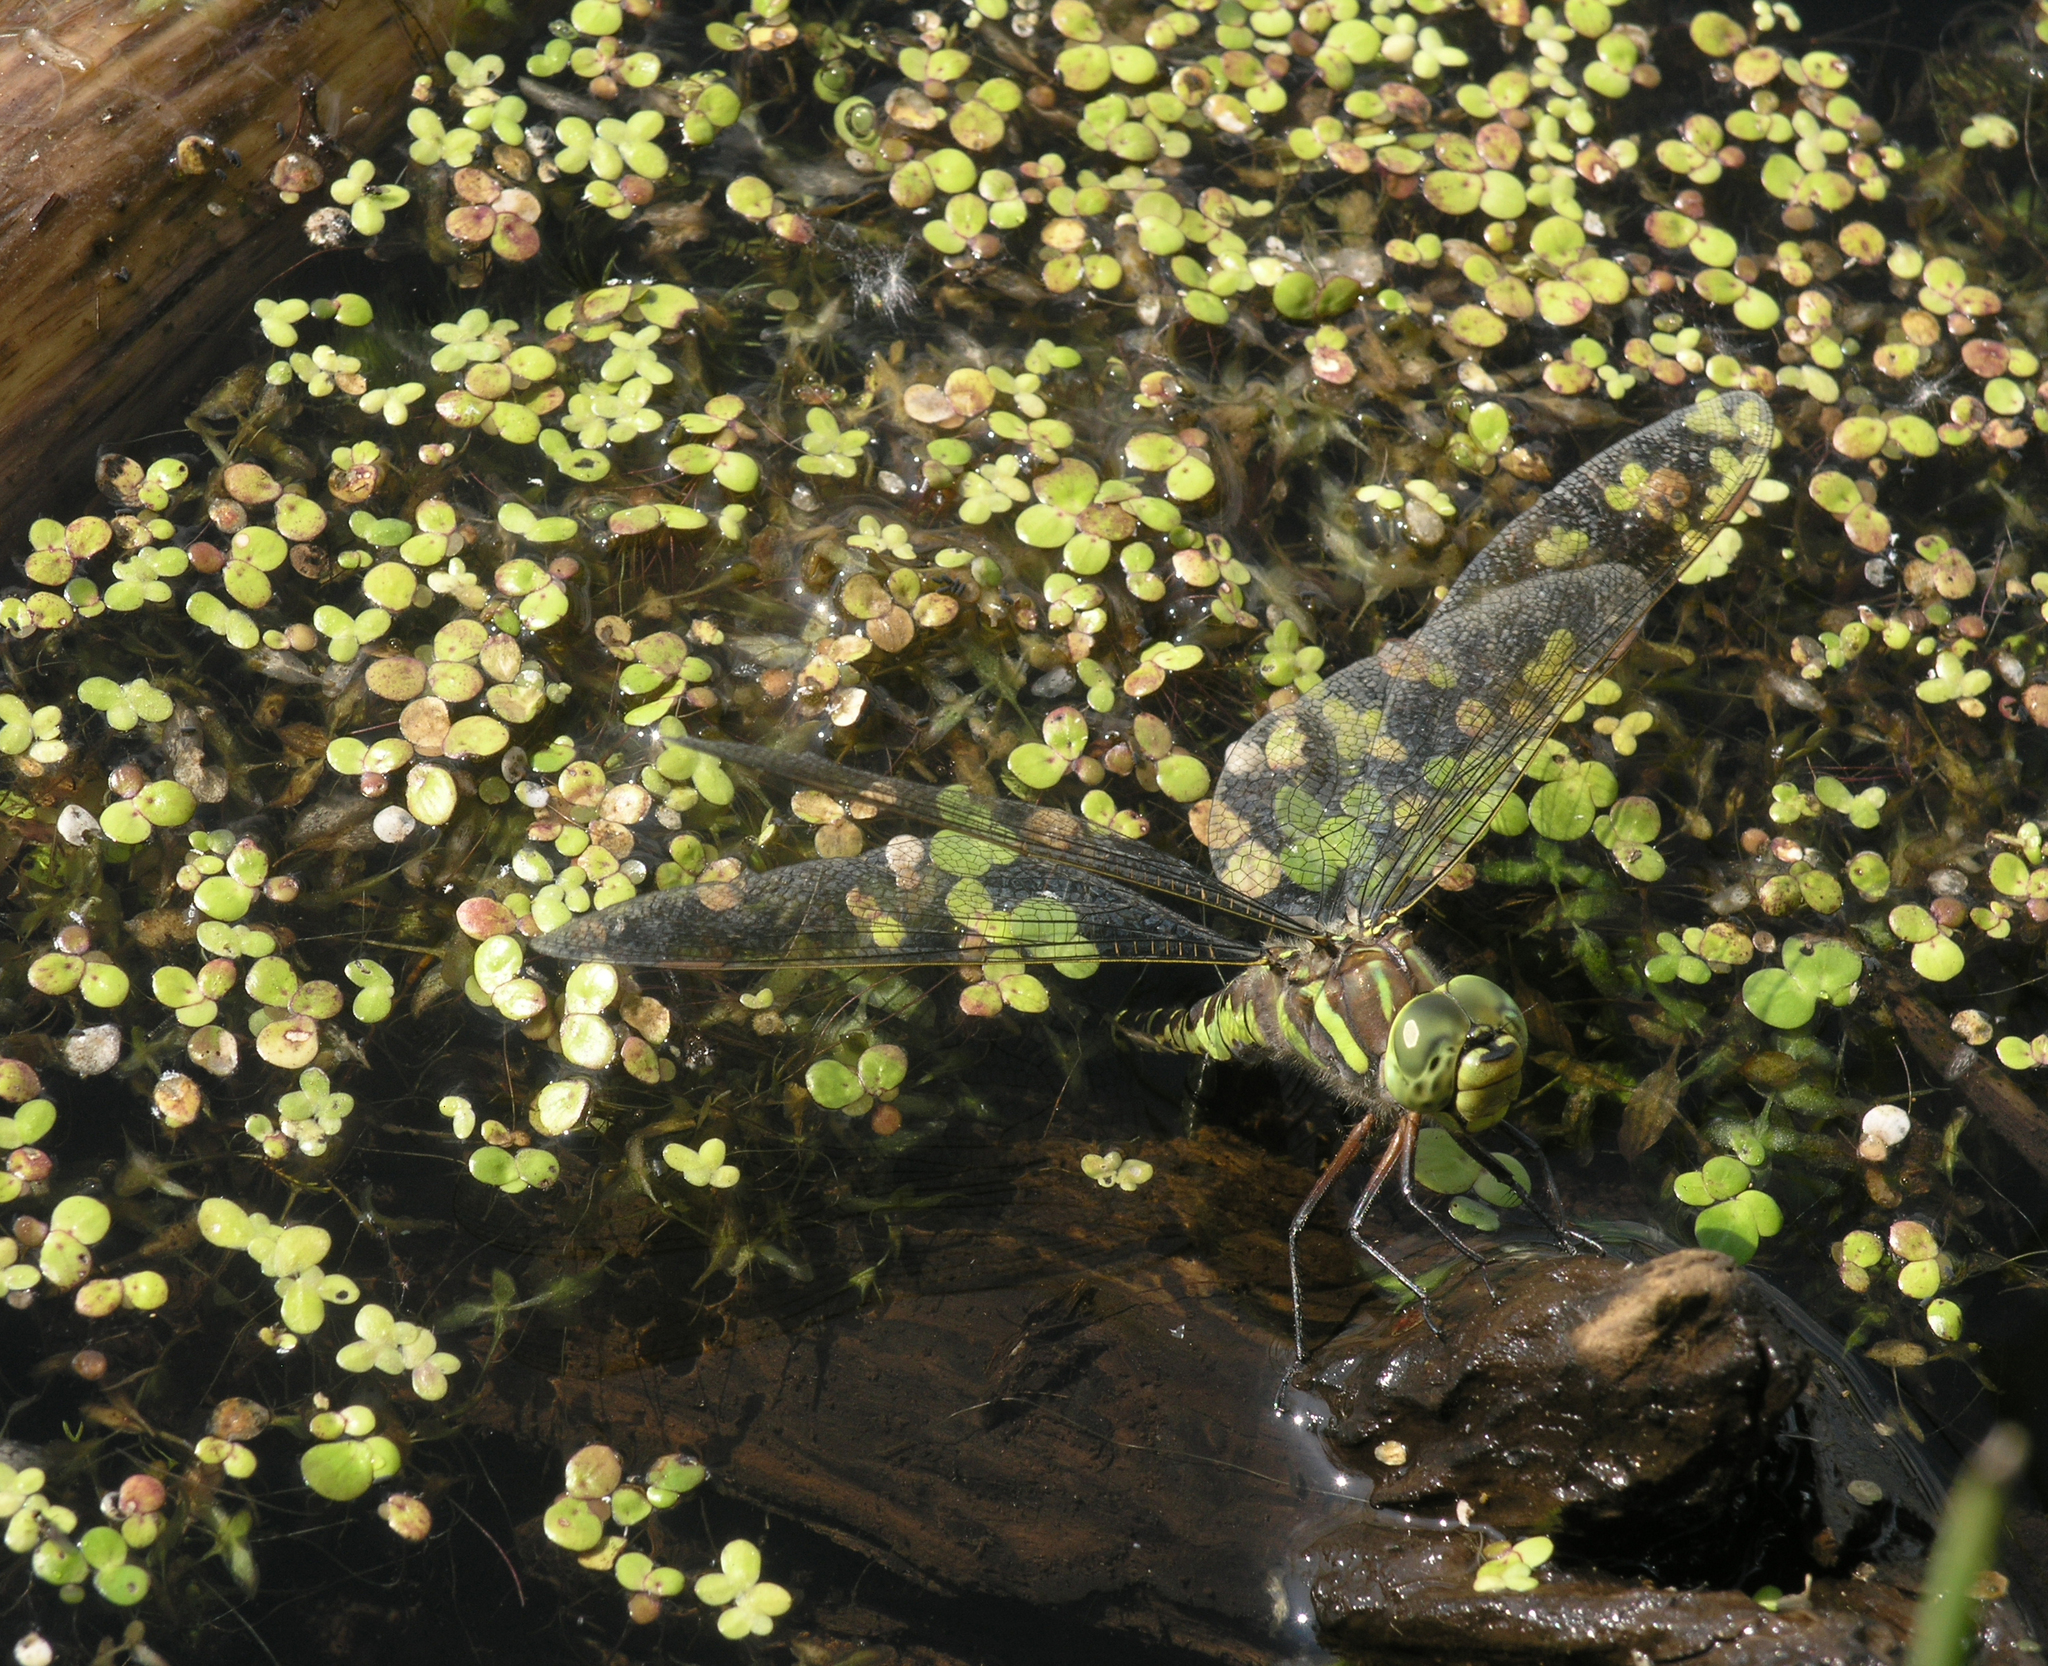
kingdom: Plantae
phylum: Tracheophyta
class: Liliopsida
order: Alismatales
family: Araceae
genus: Spirodela
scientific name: Spirodela polyrhiza
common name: Great duckweed
